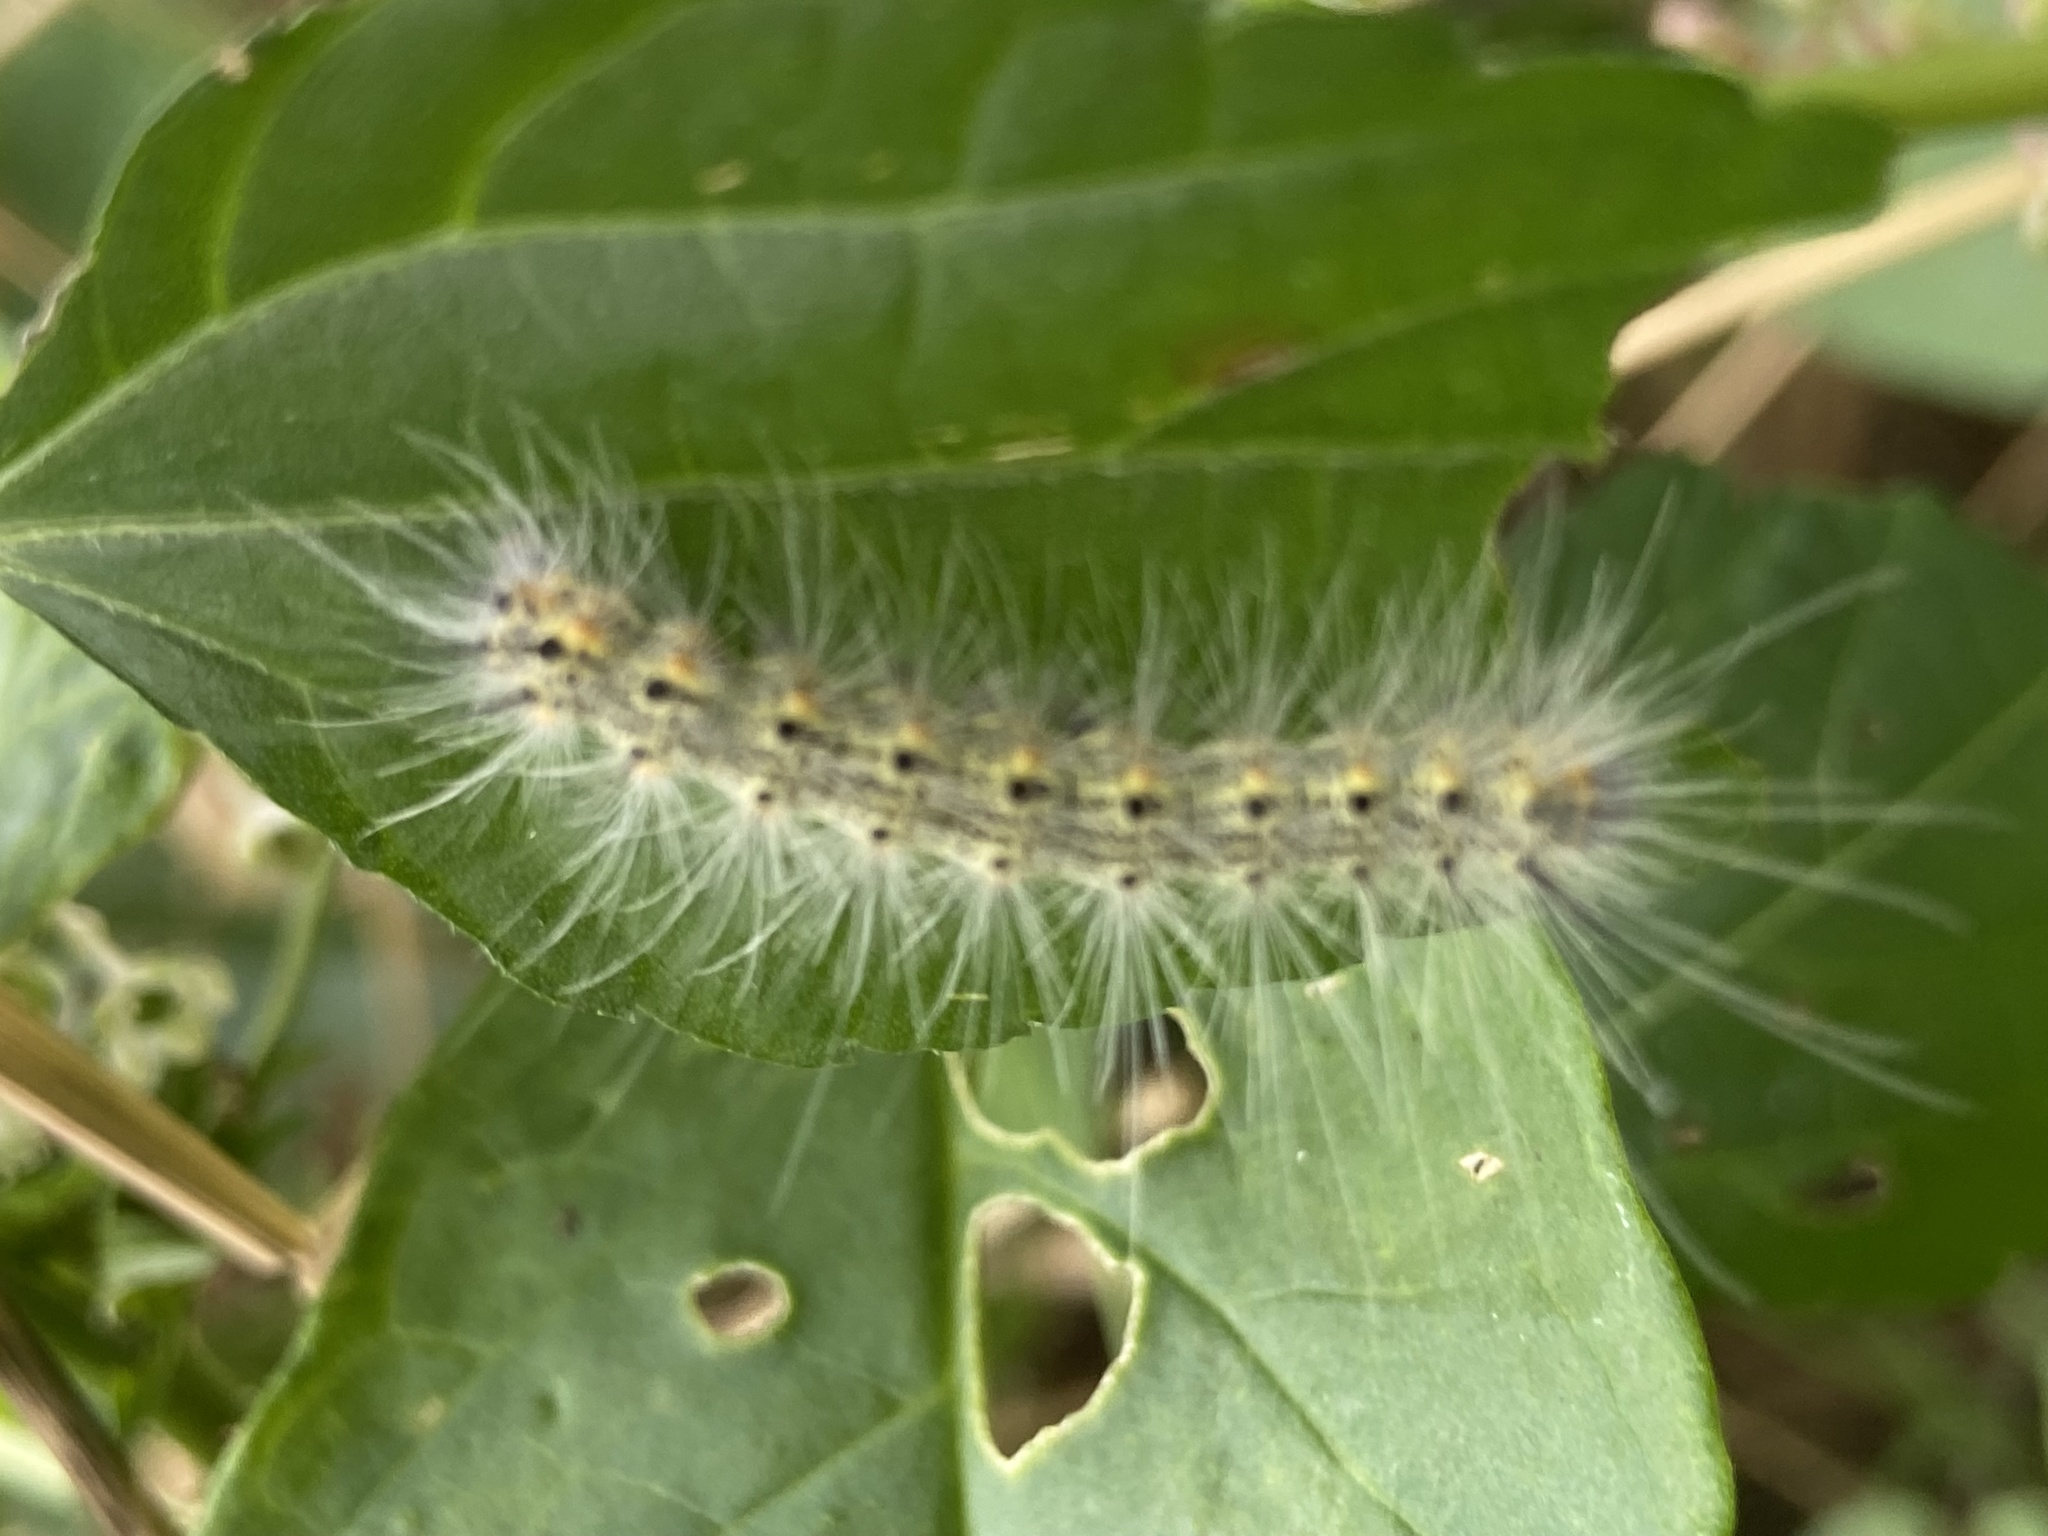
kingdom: Animalia
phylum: Arthropoda
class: Insecta
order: Lepidoptera
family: Erebidae
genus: Hyphantria
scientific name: Hyphantria cunea
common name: American white moth
